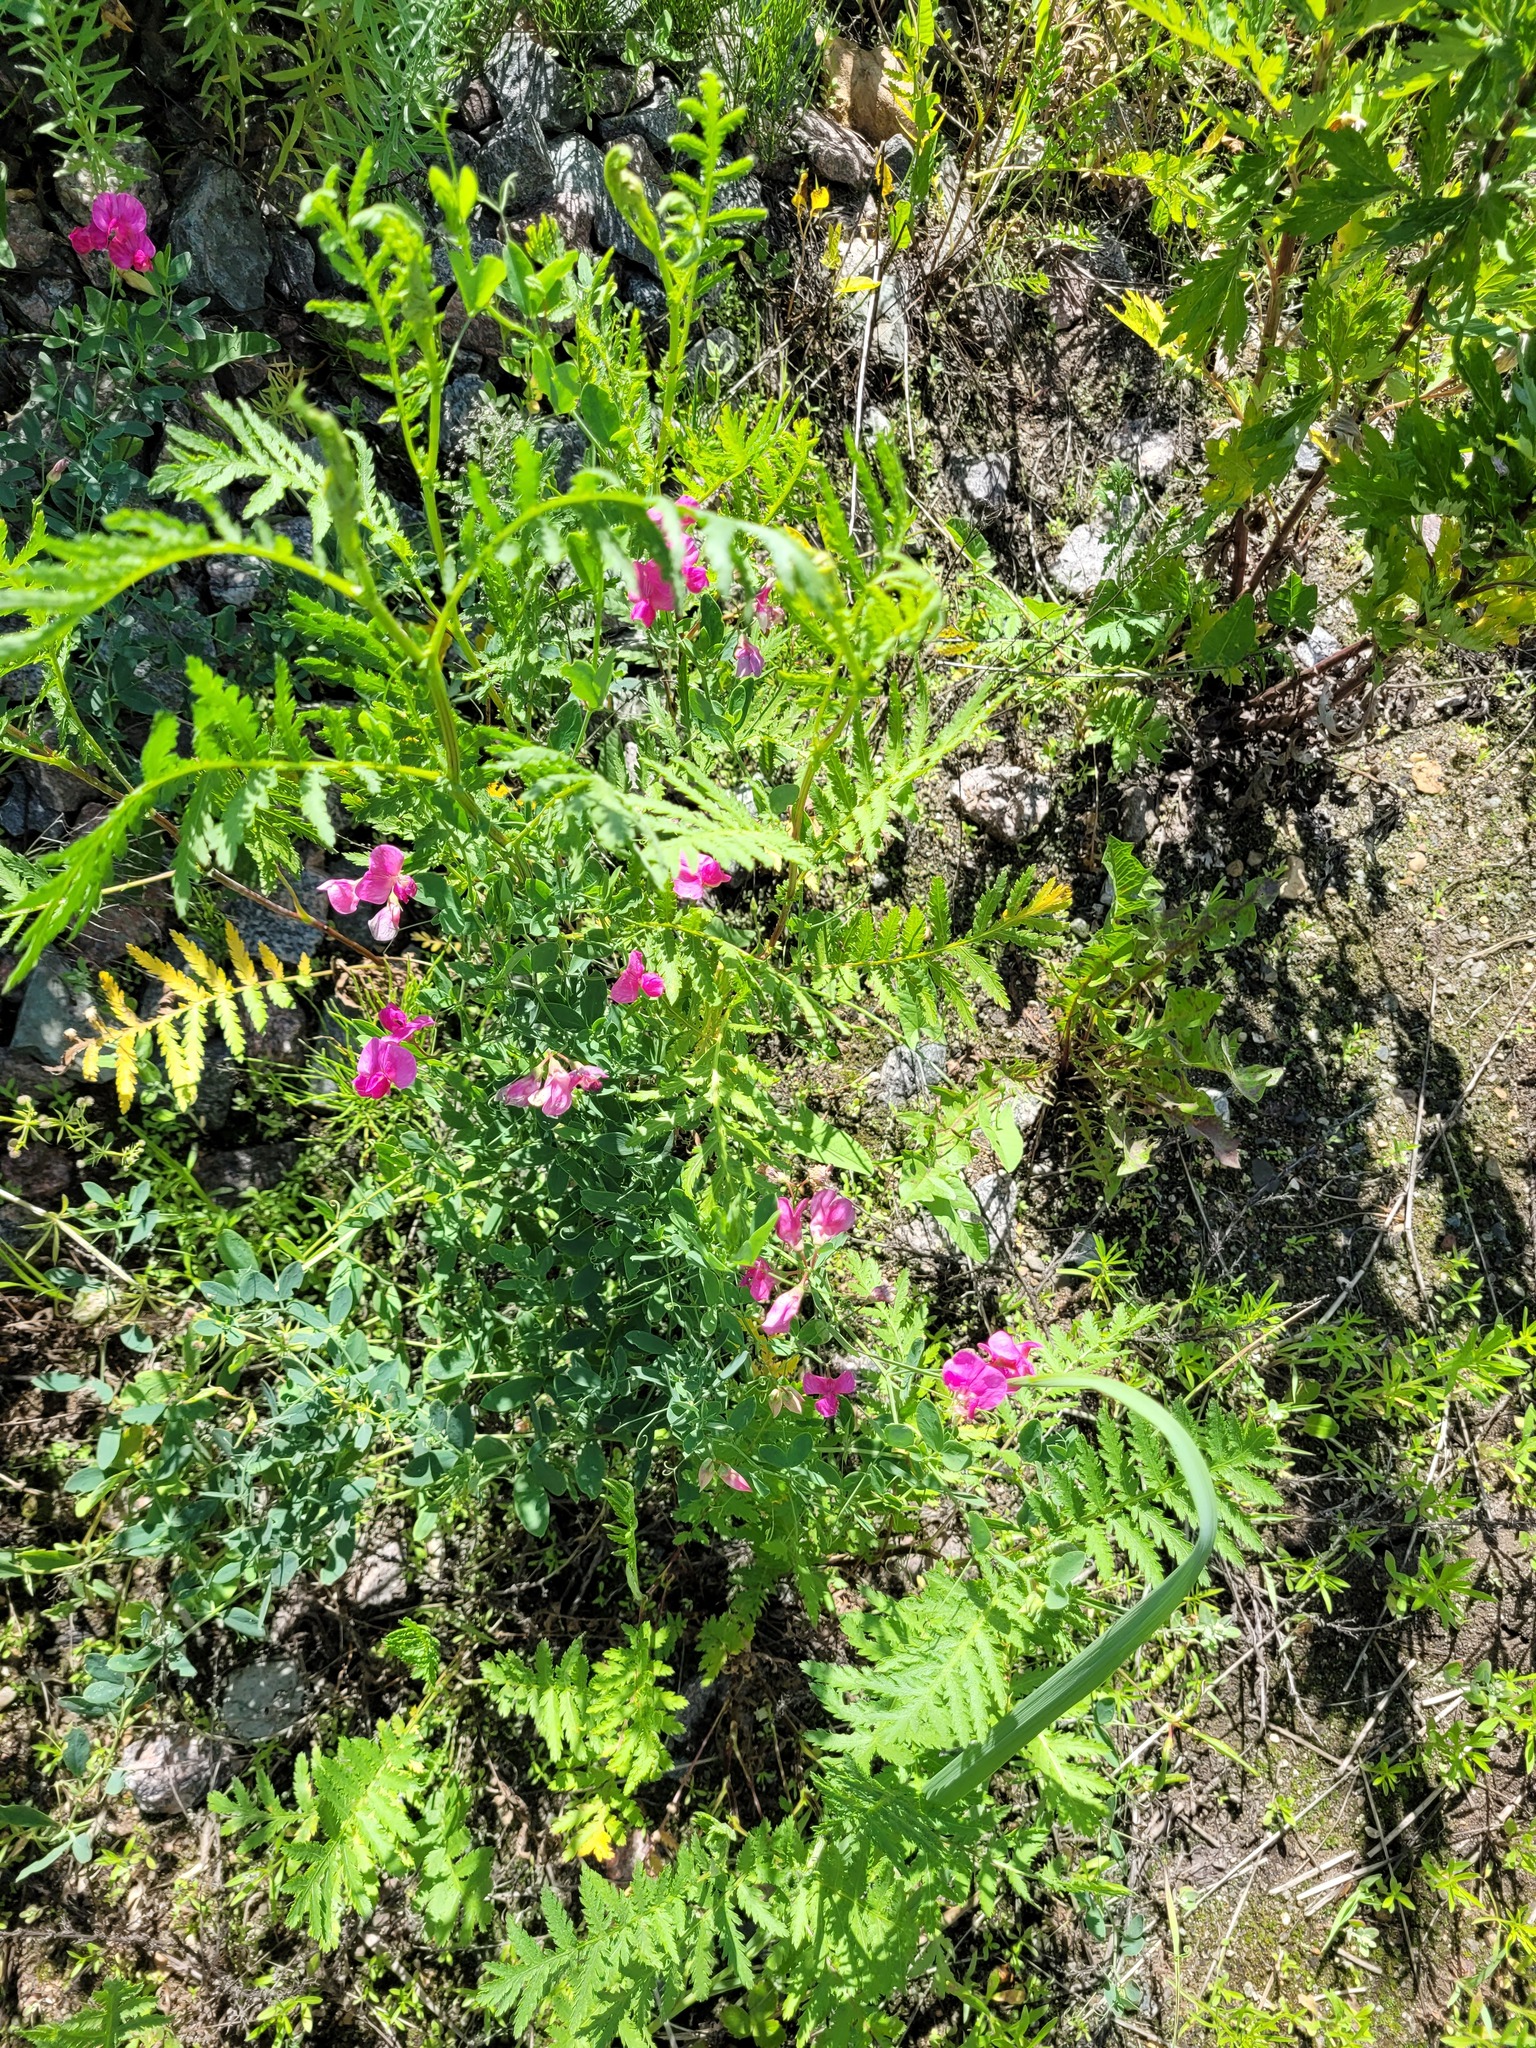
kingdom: Plantae
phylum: Tracheophyta
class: Magnoliopsida
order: Fabales
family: Fabaceae
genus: Lathyrus
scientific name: Lathyrus tuberosus
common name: Tuberous pea
